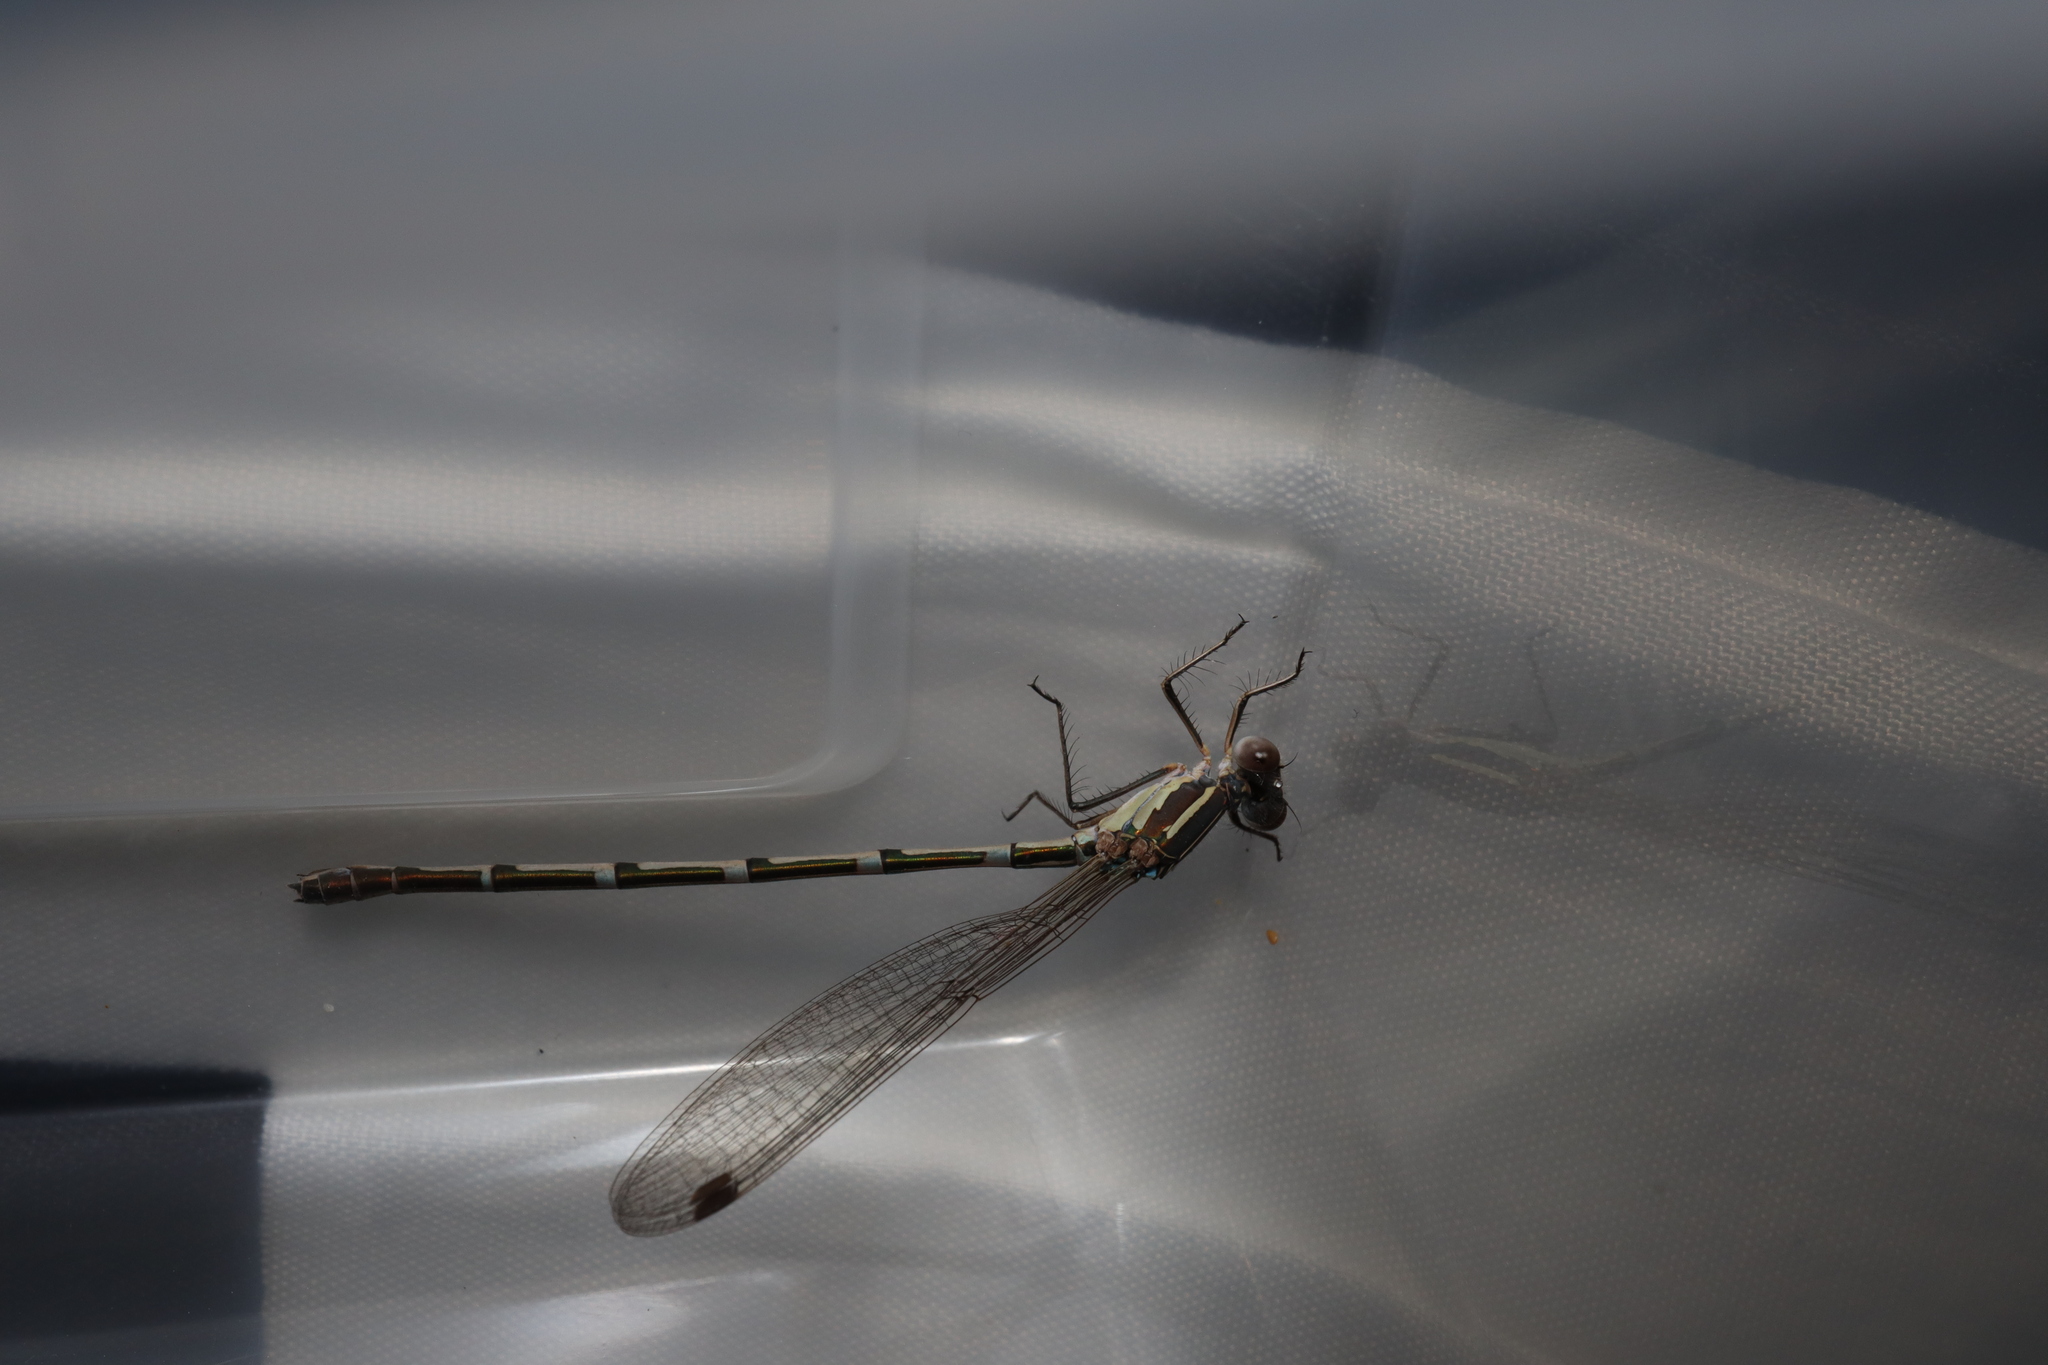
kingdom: Animalia
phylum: Arthropoda
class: Insecta
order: Odonata
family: Lestidae
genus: Austrolestes
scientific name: Austrolestes leda
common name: Wandering ringtail
